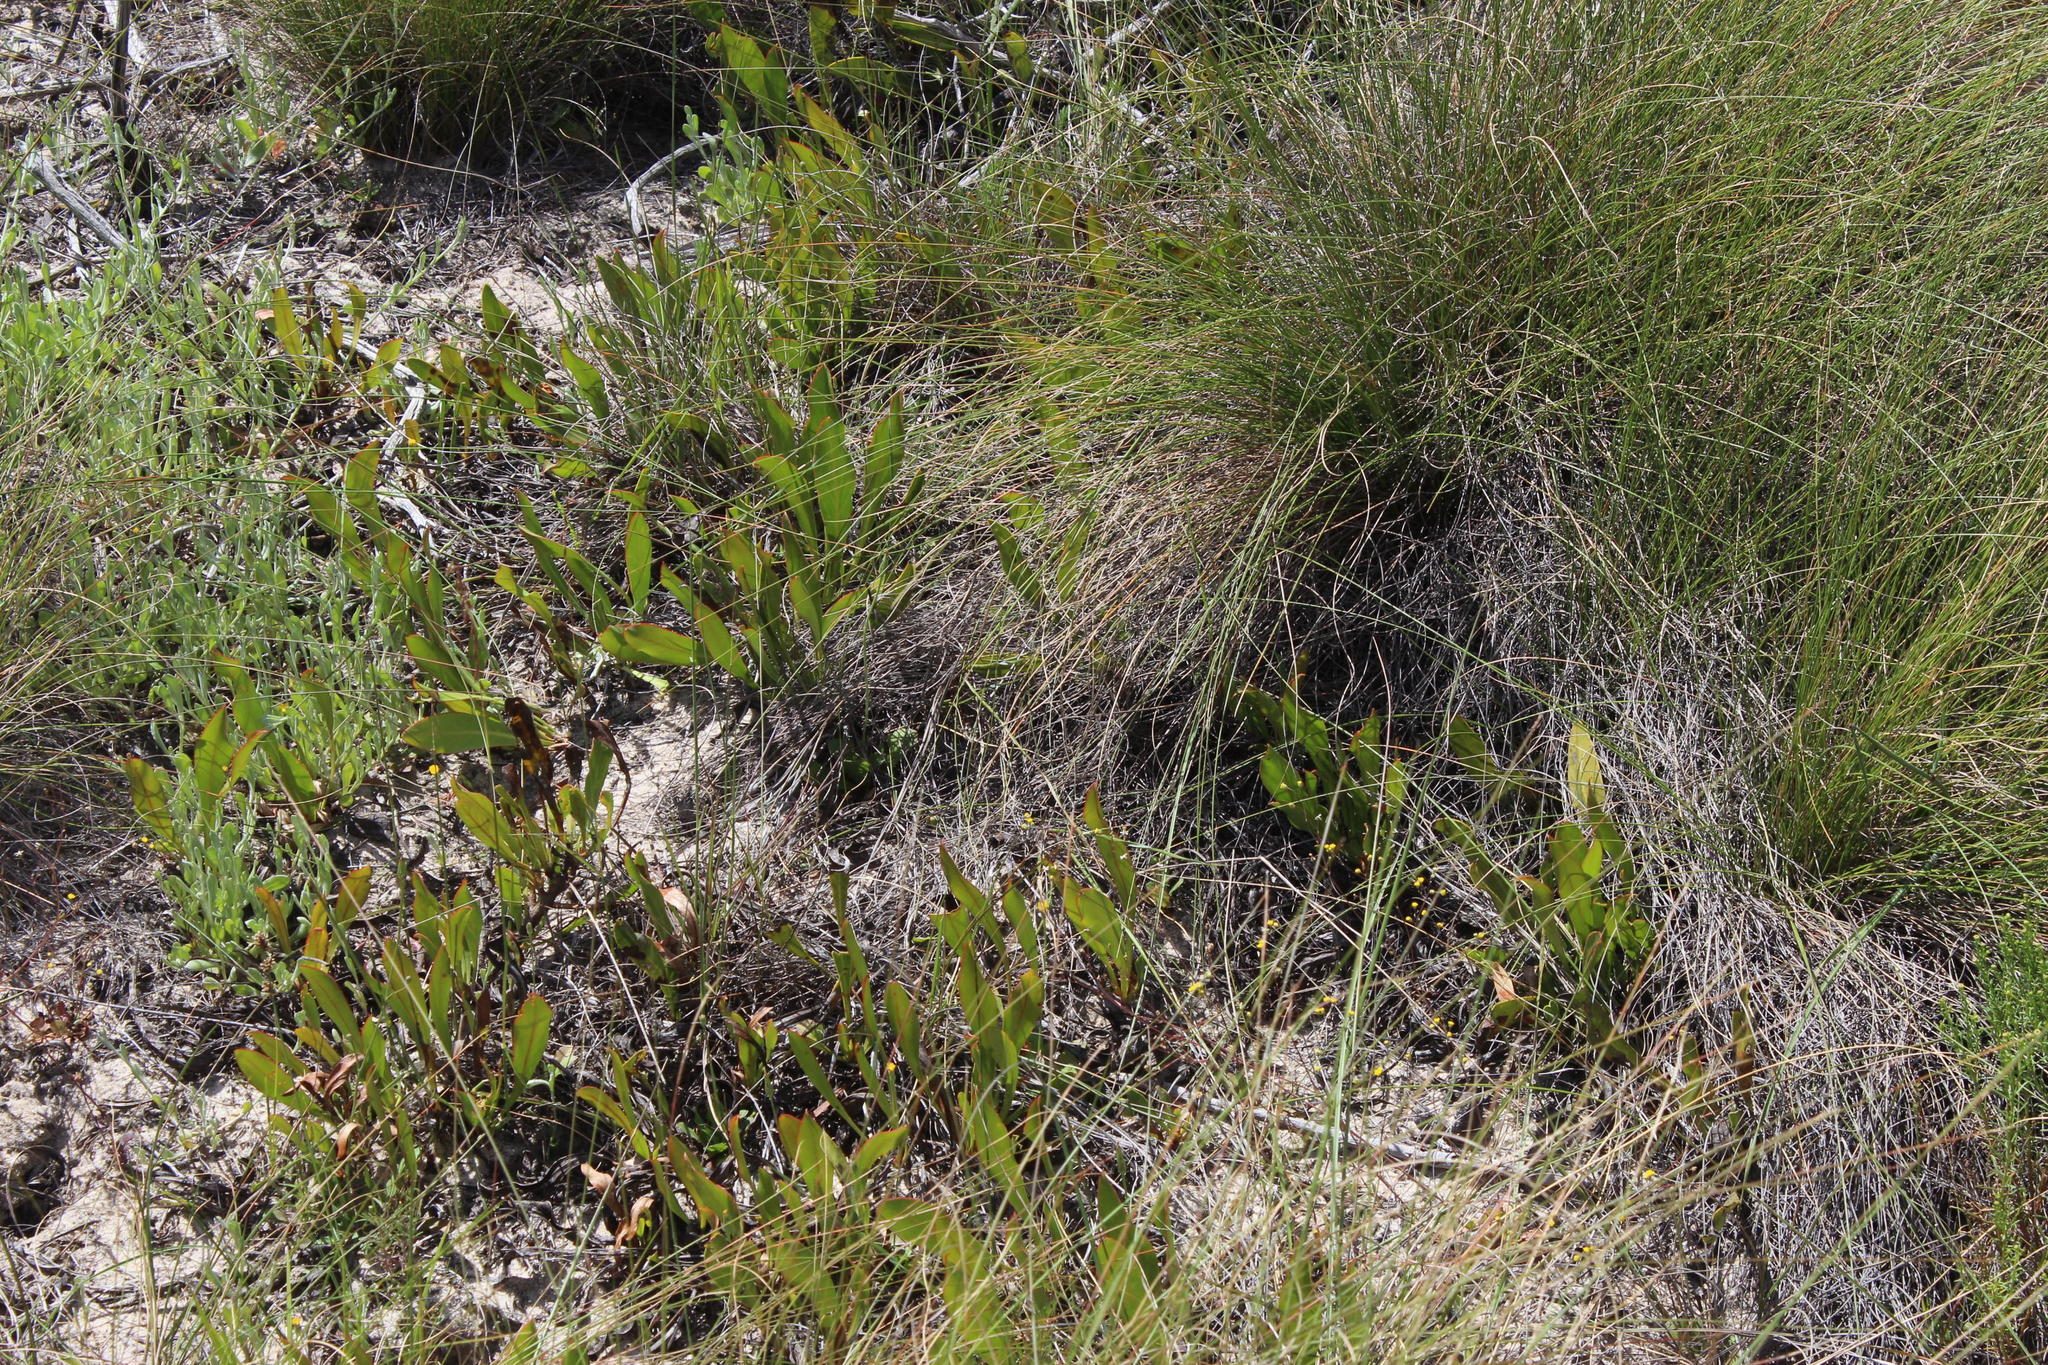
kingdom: Plantae
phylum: Tracheophyta
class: Magnoliopsida
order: Proteales
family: Proteaceae
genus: Protea
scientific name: Protea acaulos
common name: Common ground sugarbush
